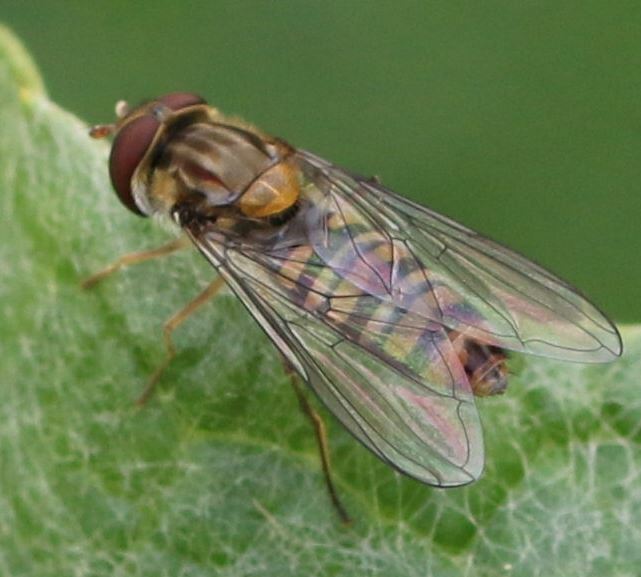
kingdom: Animalia
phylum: Arthropoda
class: Insecta
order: Diptera
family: Syrphidae
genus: Episyrphus
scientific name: Episyrphus balteatus
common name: Marmalade hoverfly
